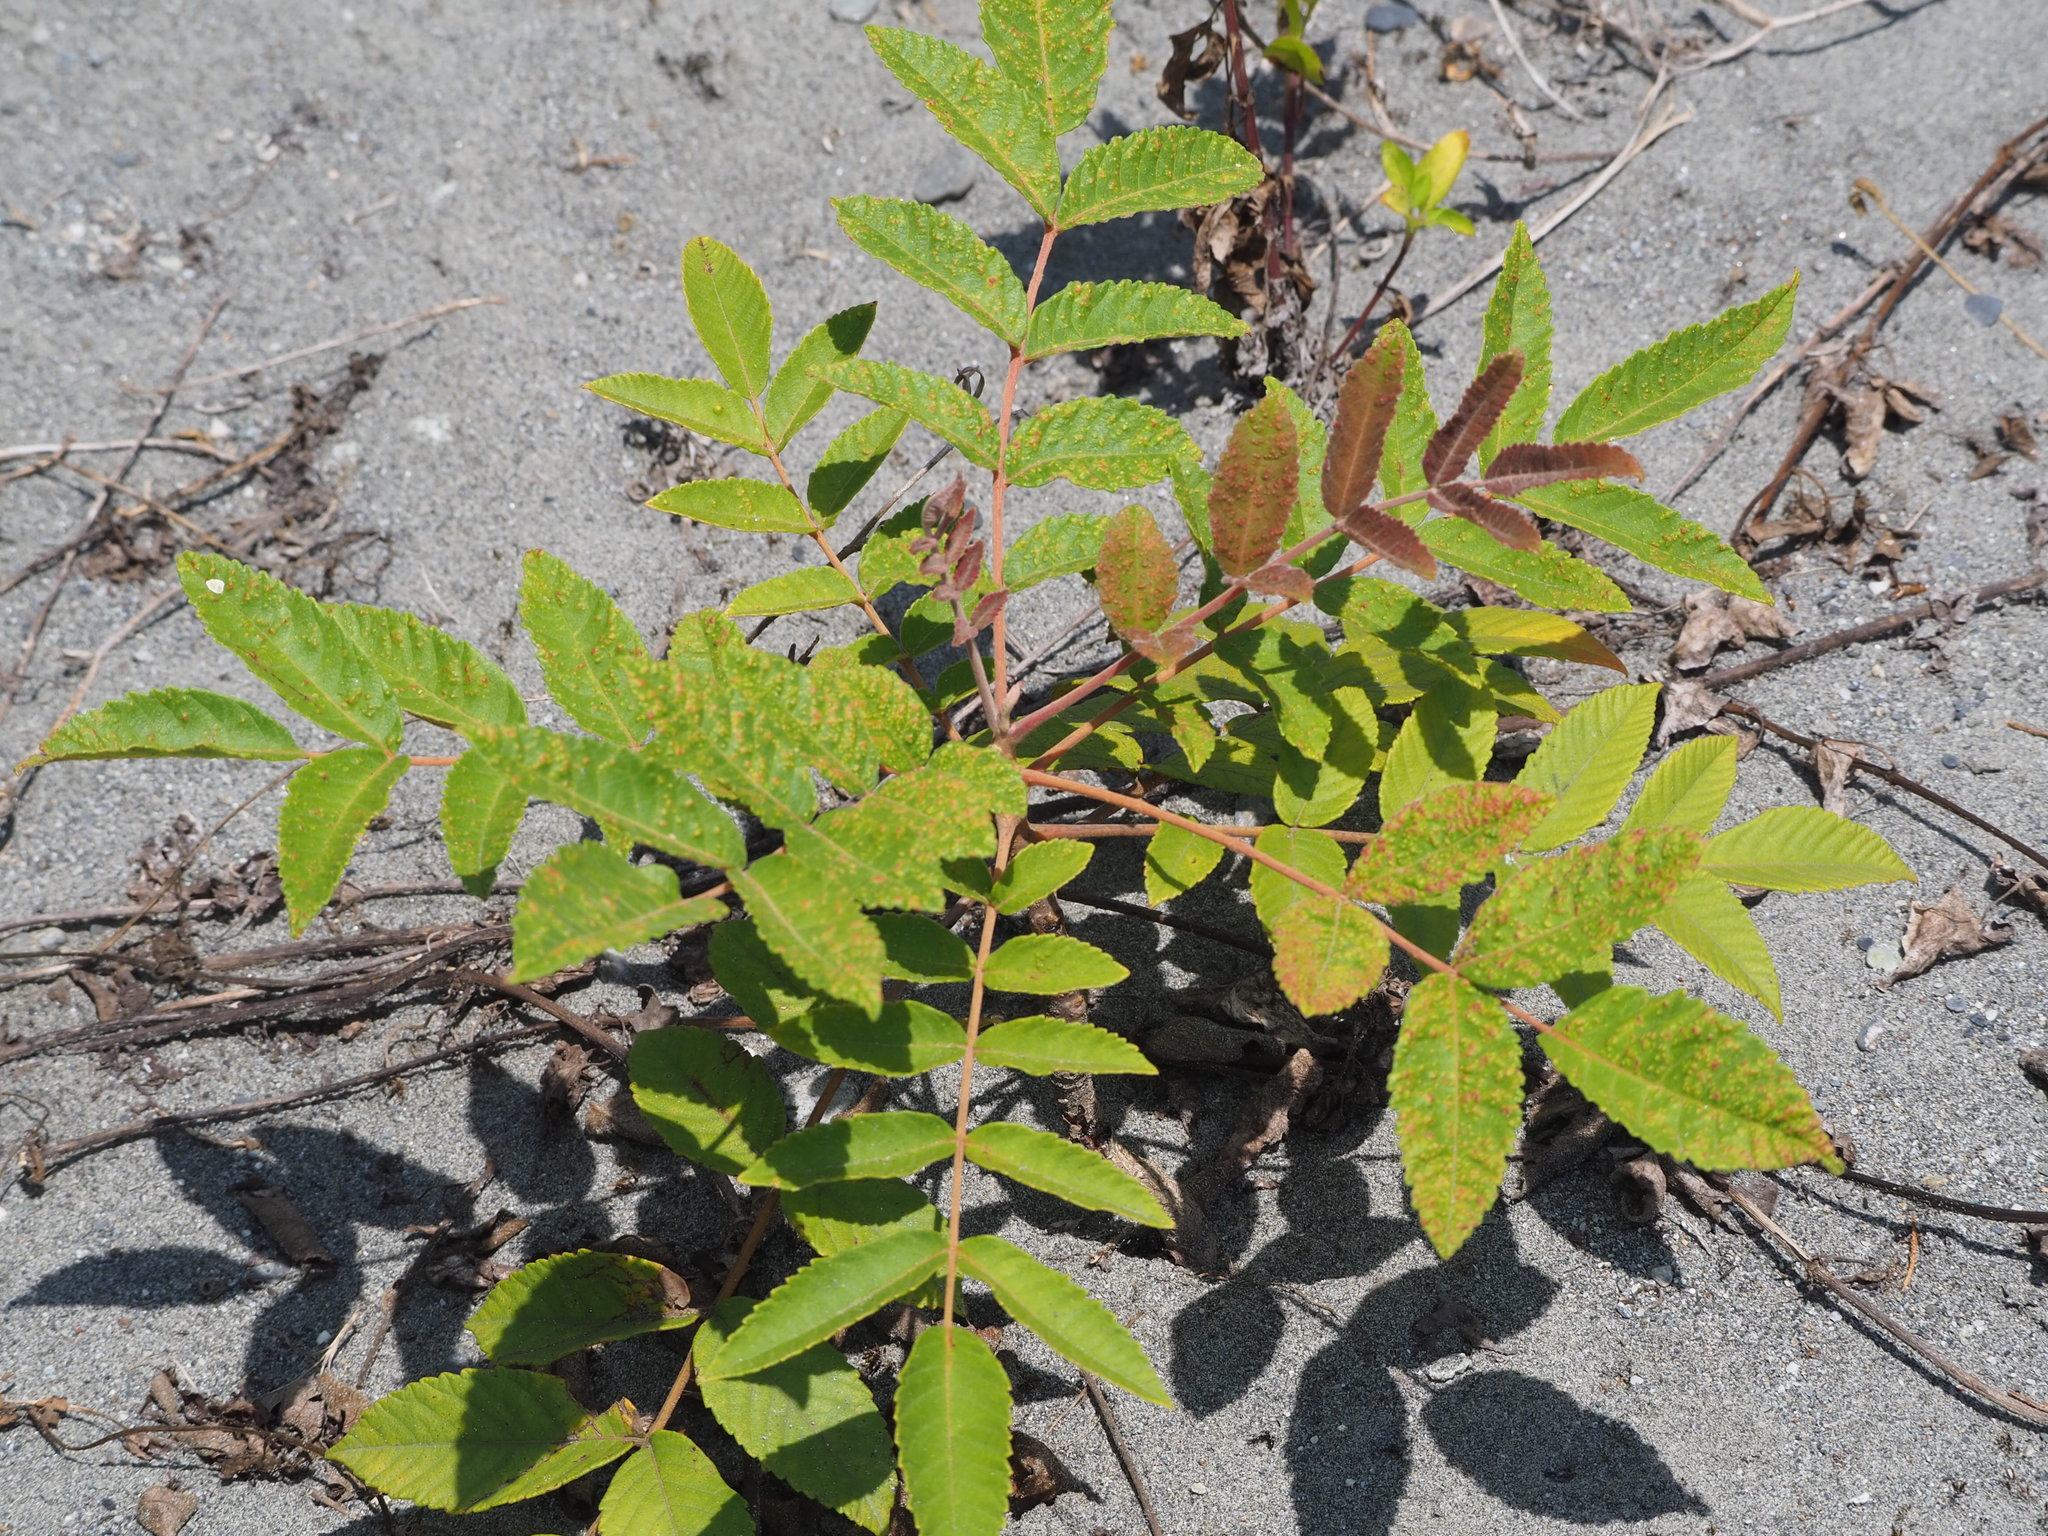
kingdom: Plantae
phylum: Tracheophyta
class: Magnoliopsida
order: Sapindales
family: Anacardiaceae
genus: Rhus
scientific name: Rhus chinensis
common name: Chinese gall
